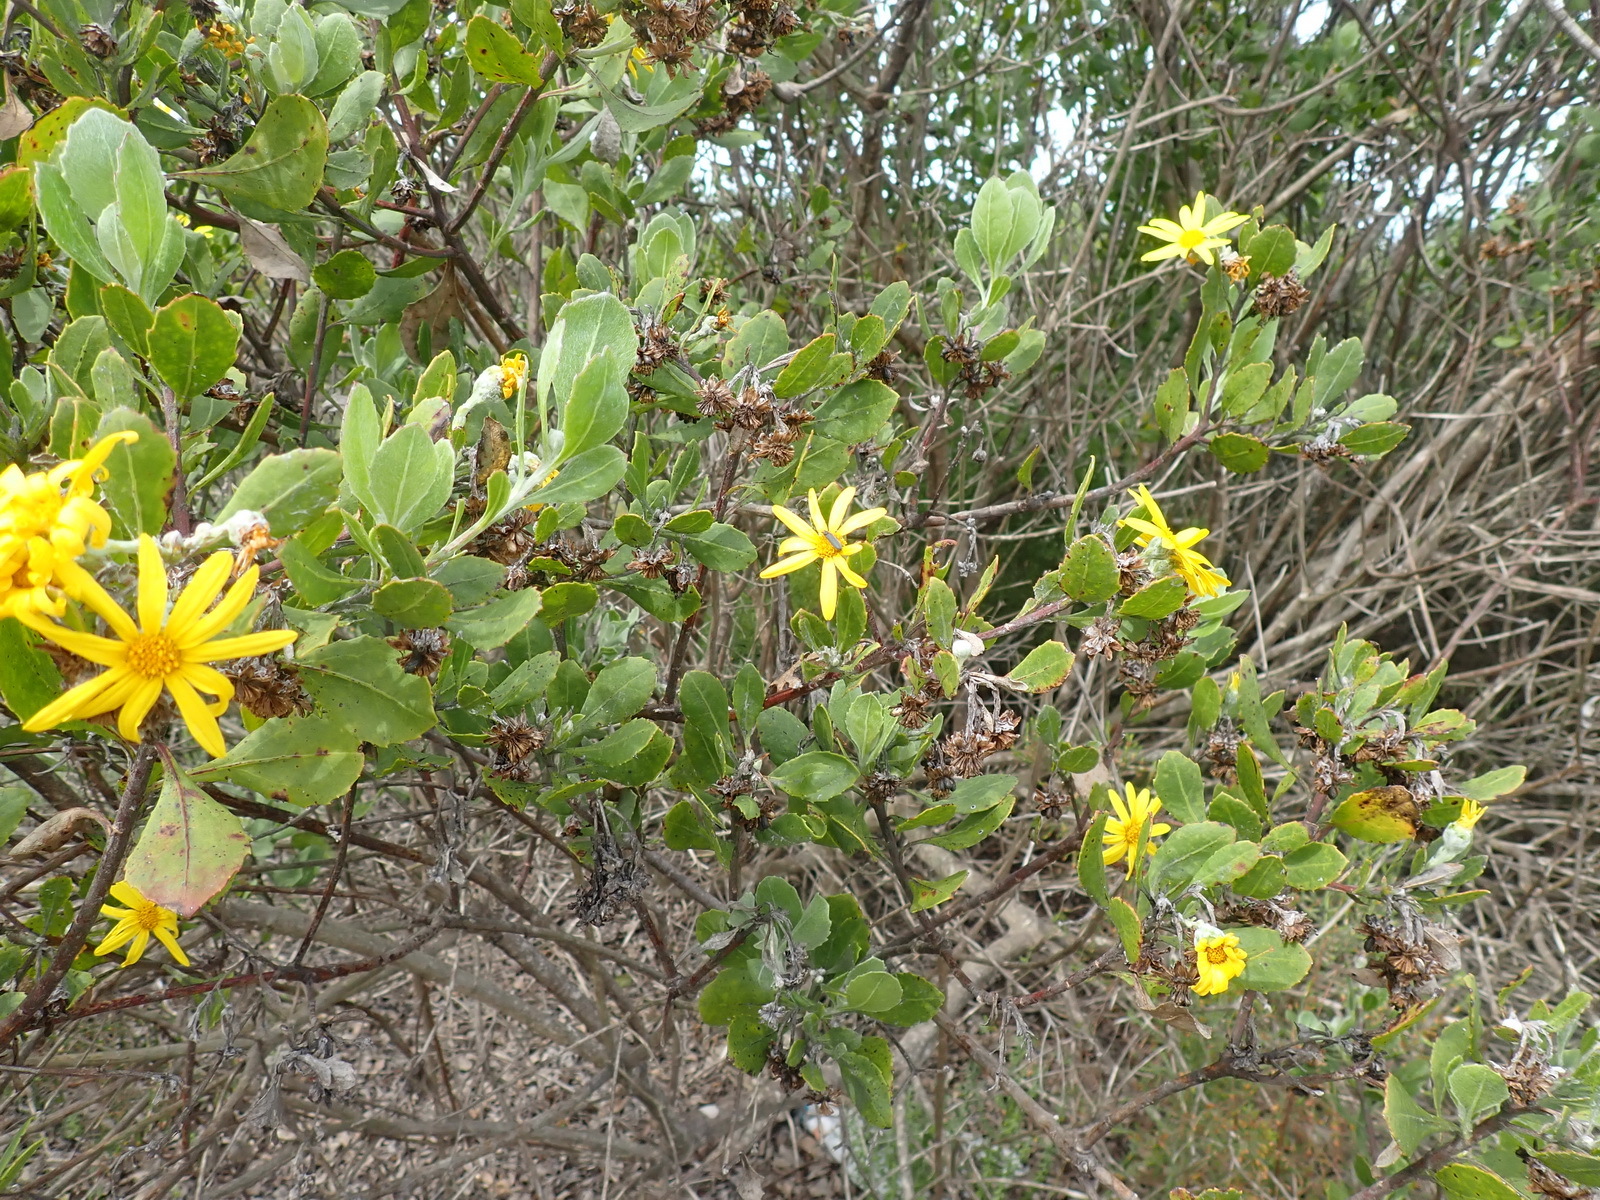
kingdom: Plantae
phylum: Tracheophyta
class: Magnoliopsida
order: Asterales
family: Asteraceae
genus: Osteospermum
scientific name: Osteospermum moniliferum
